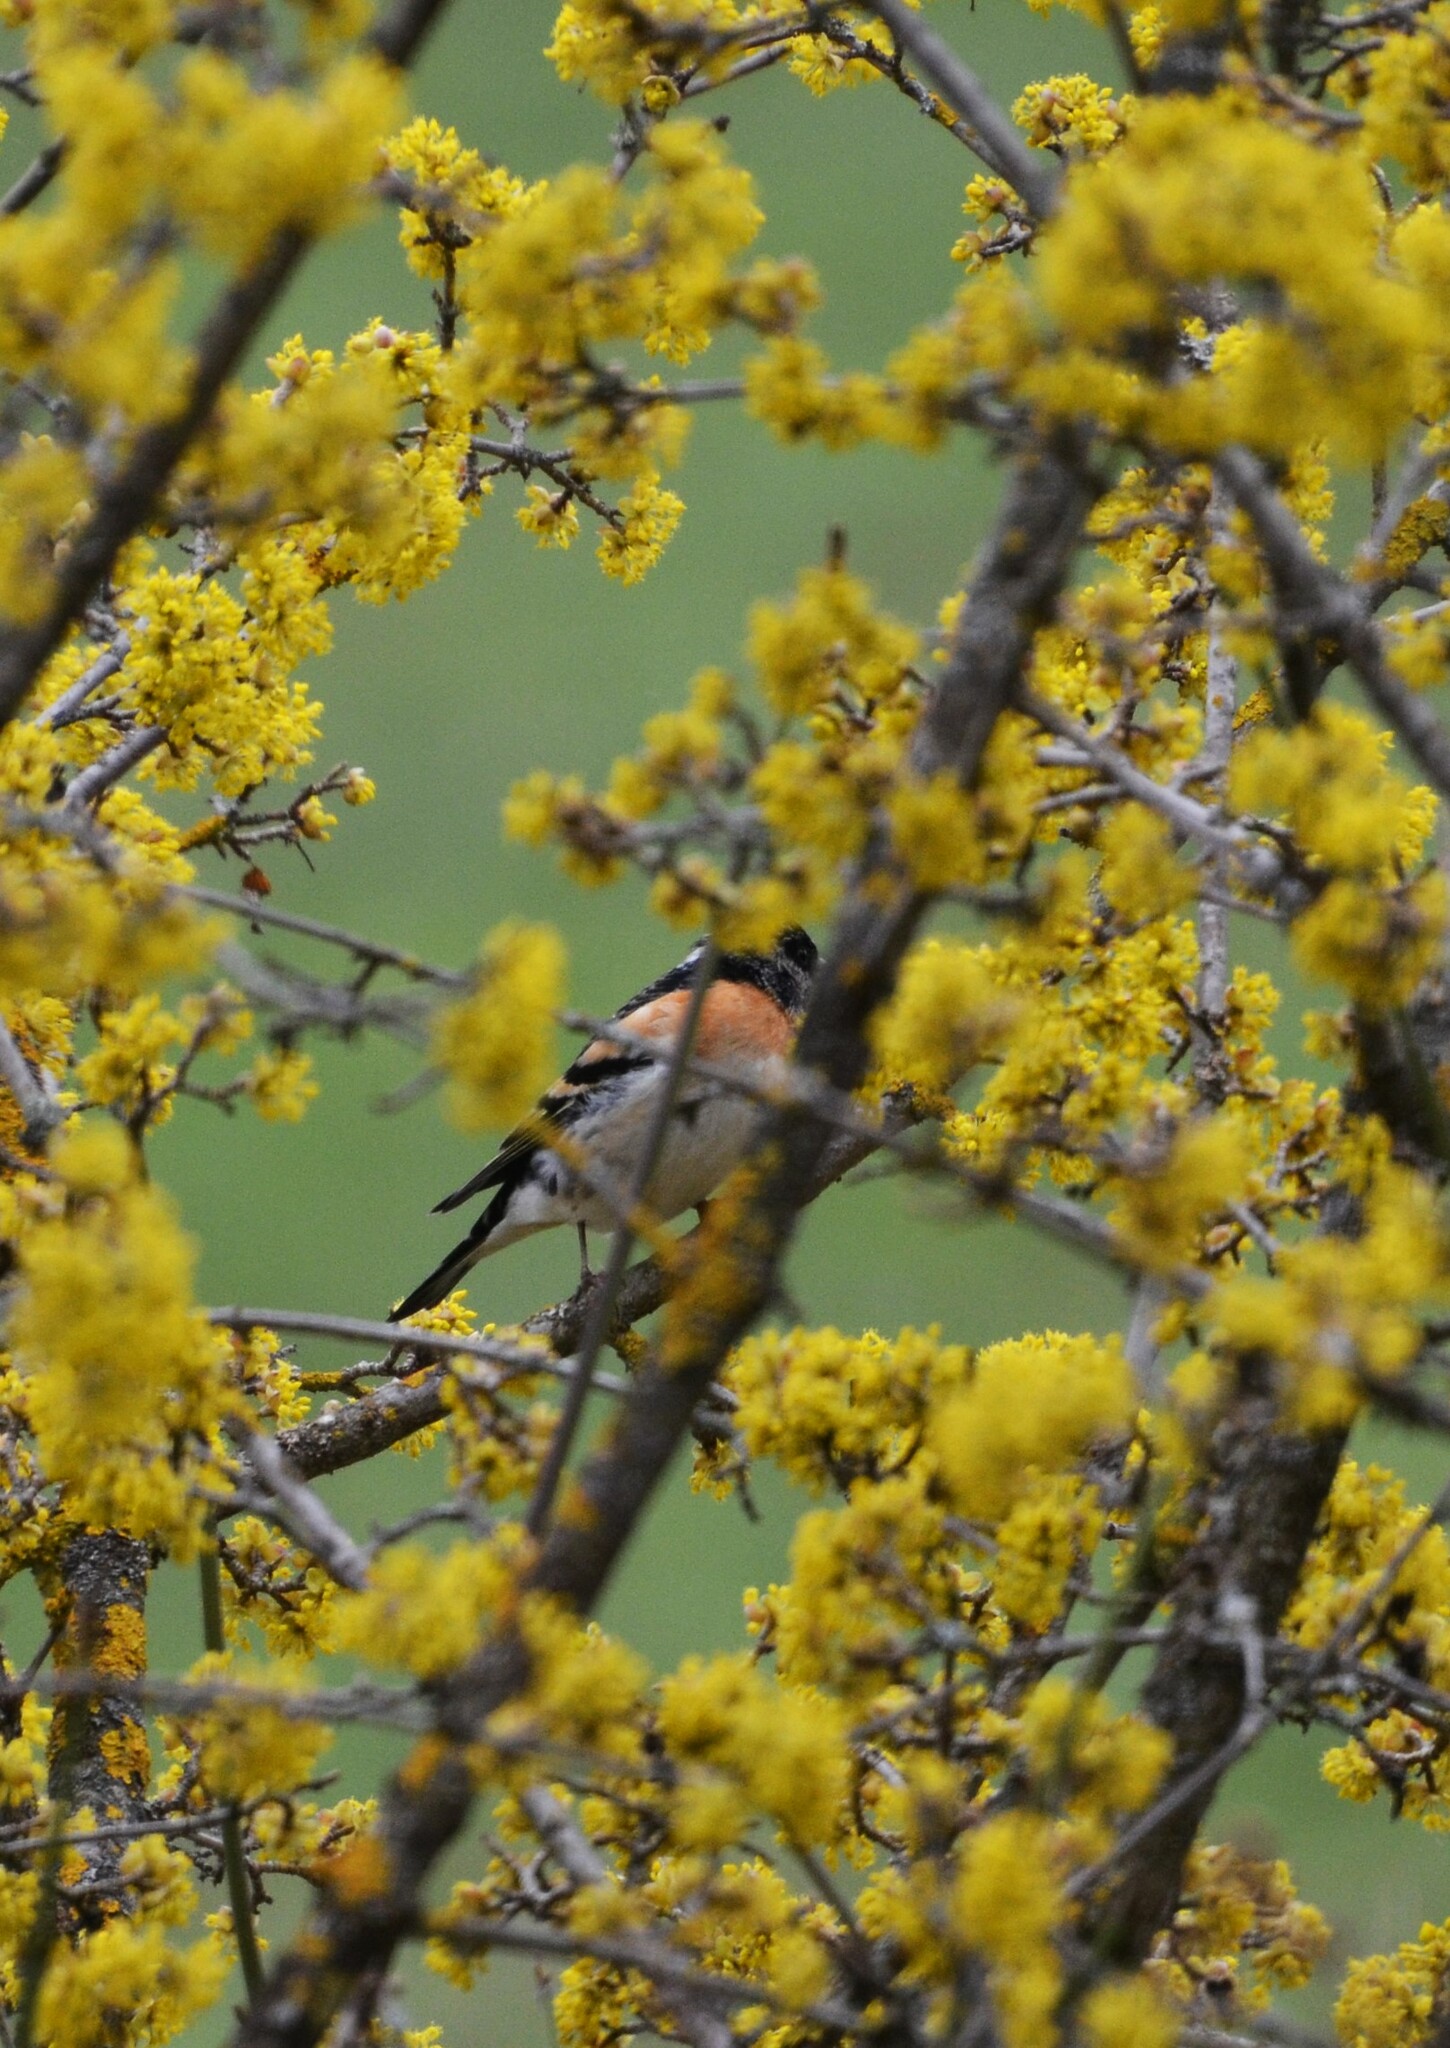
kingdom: Animalia
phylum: Chordata
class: Aves
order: Passeriformes
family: Fringillidae
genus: Fringilla
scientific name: Fringilla montifringilla
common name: Brambling
